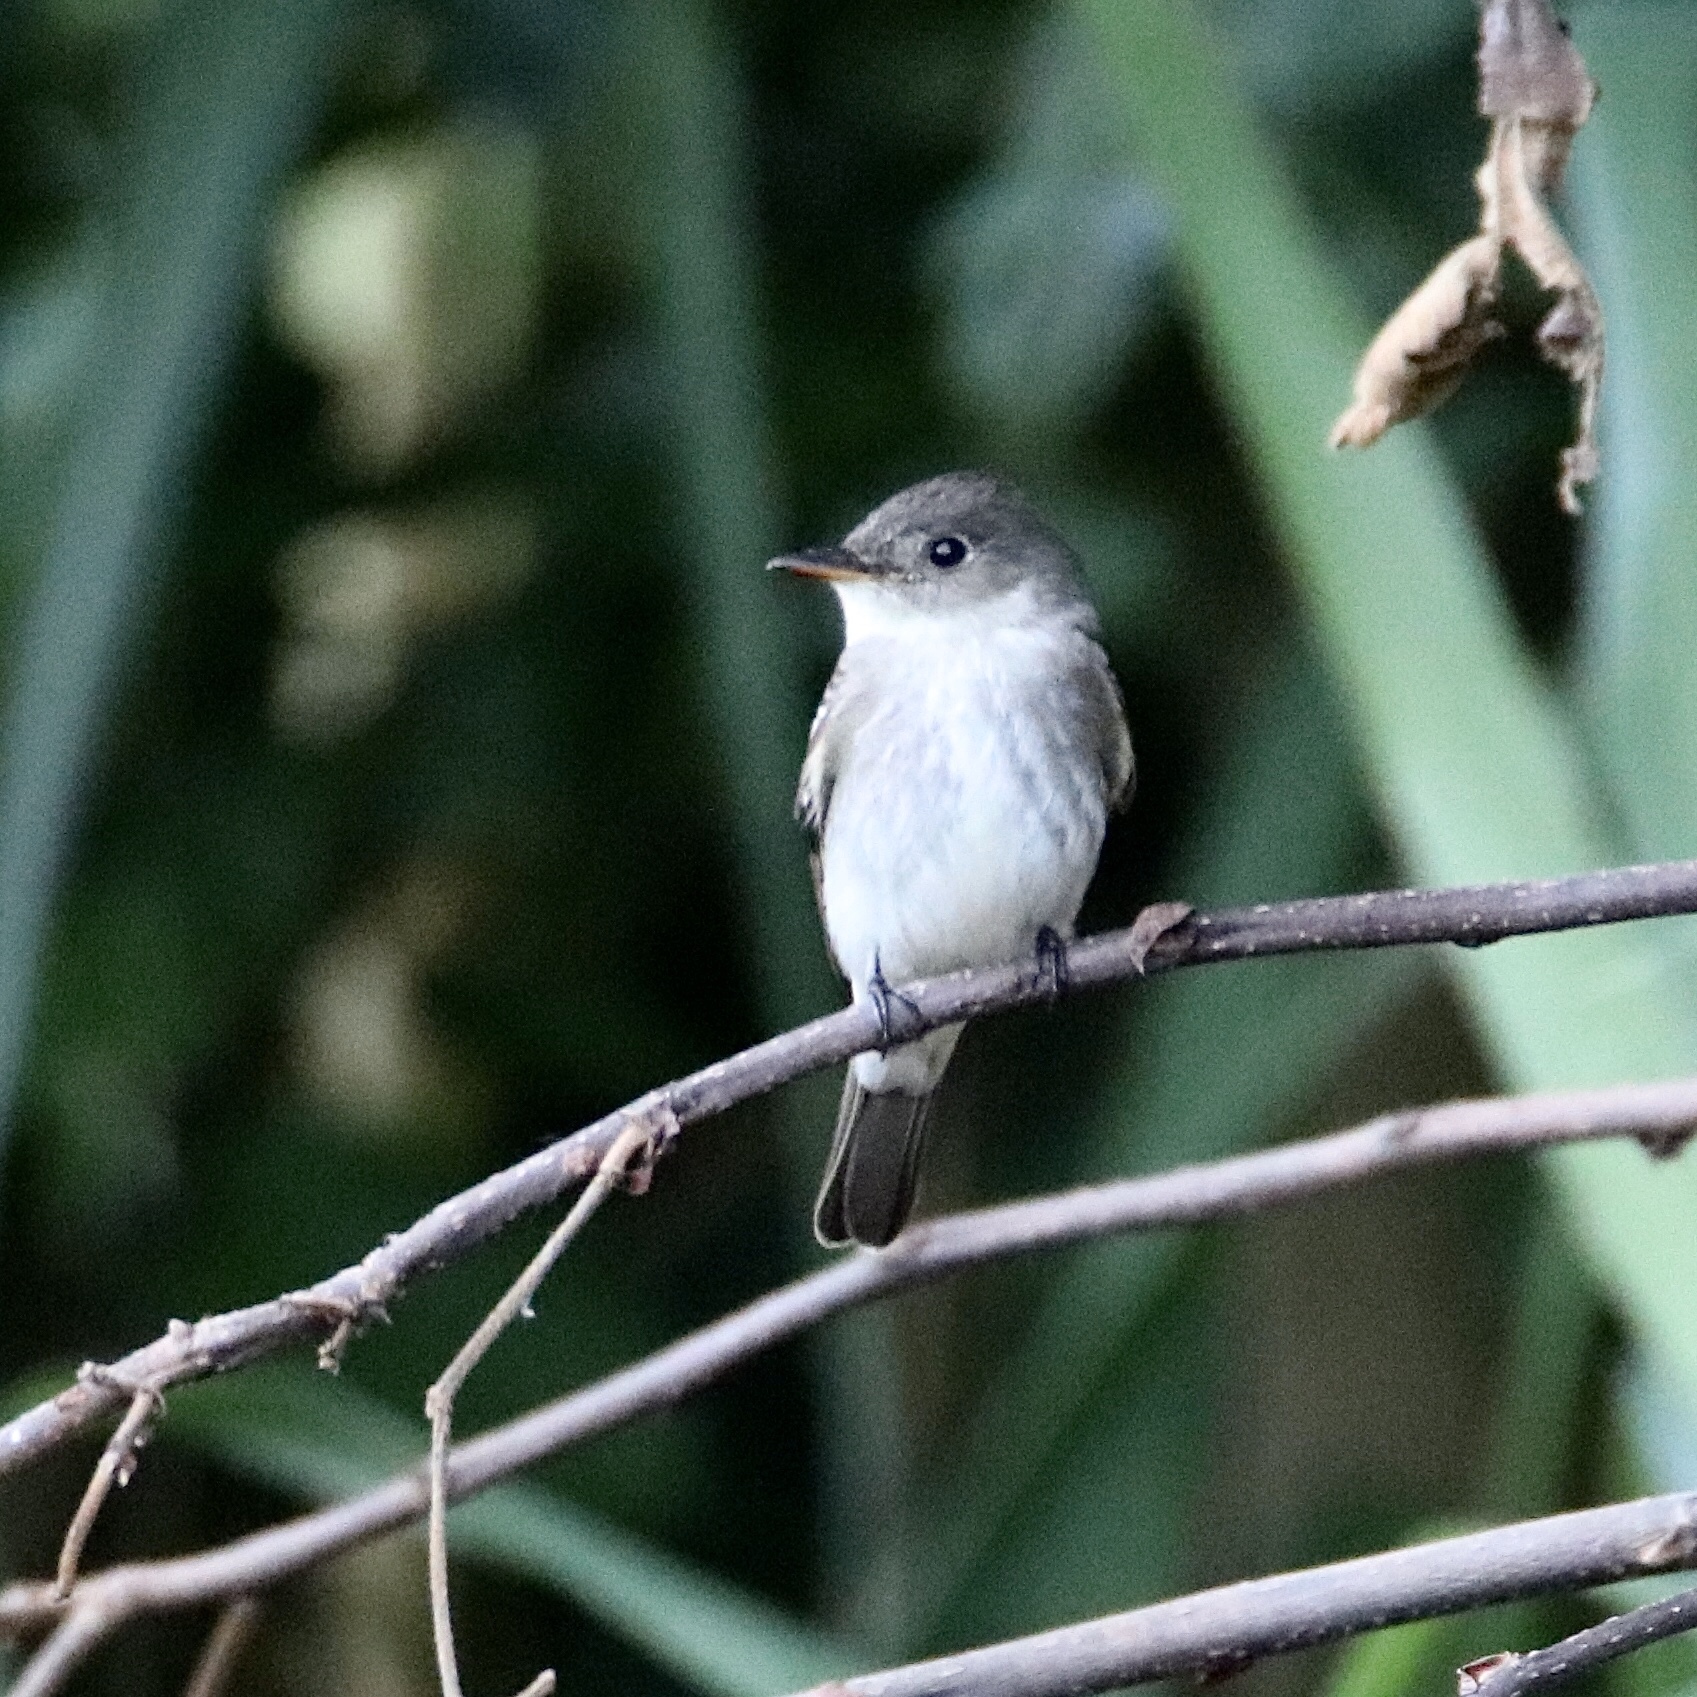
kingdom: Animalia
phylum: Chordata
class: Aves
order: Passeriformes
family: Tyrannidae
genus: Contopus
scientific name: Contopus virens
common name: Eastern wood-pewee
